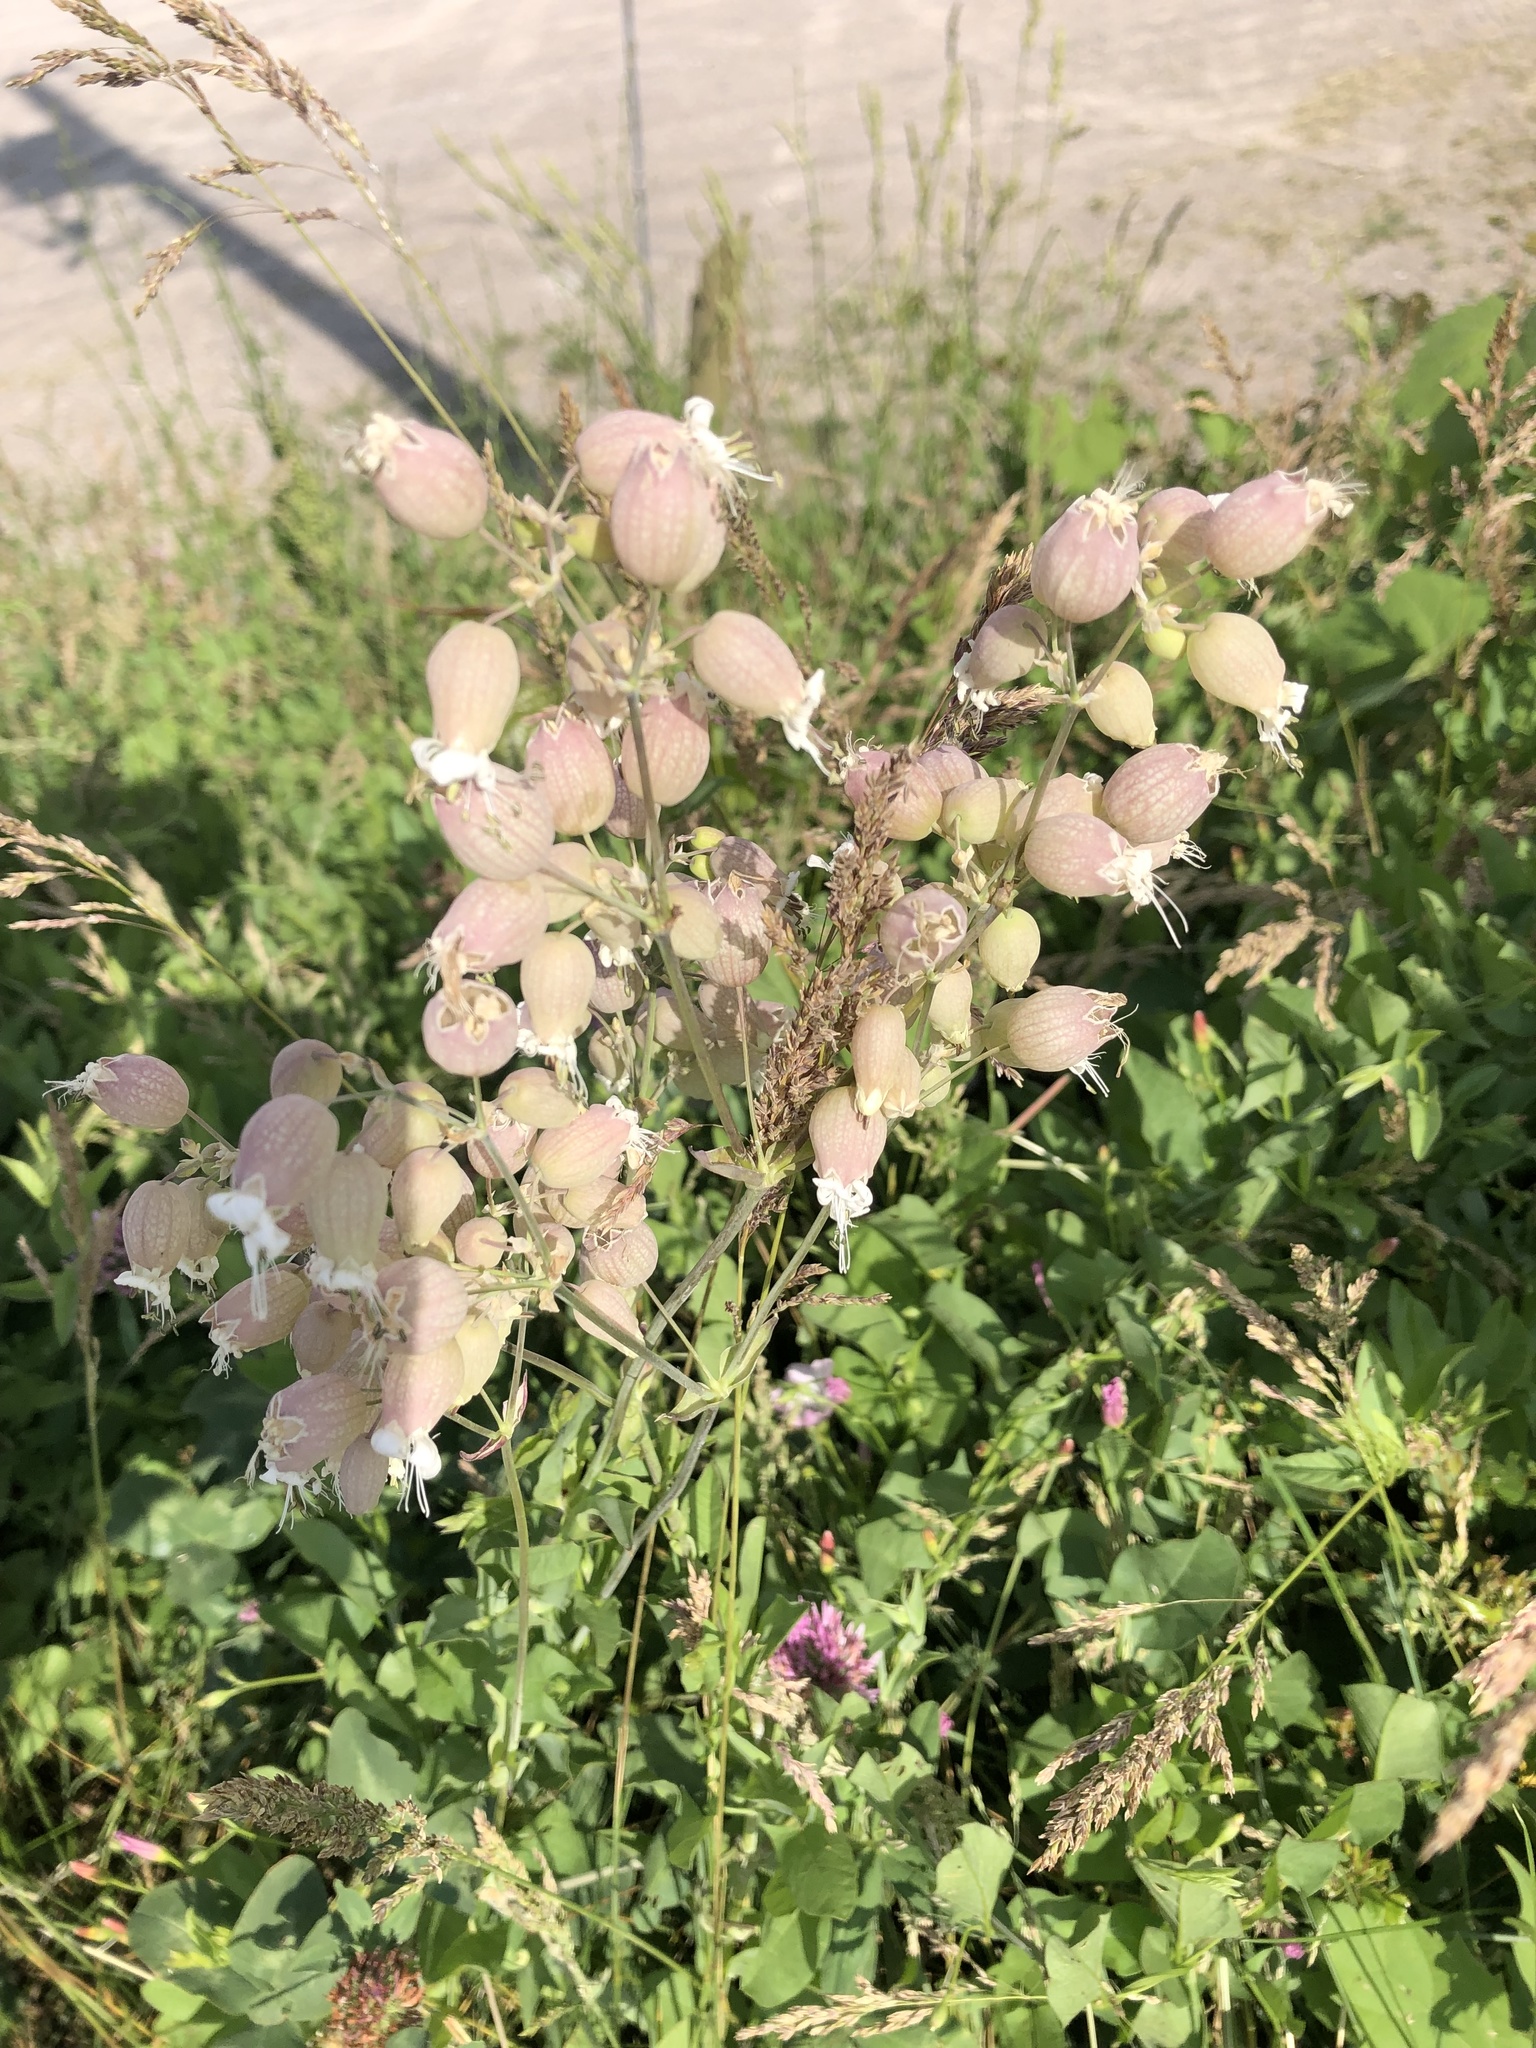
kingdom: Plantae
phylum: Tracheophyta
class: Magnoliopsida
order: Caryophyllales
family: Caryophyllaceae
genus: Silene
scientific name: Silene vulgaris
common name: Bladder campion
